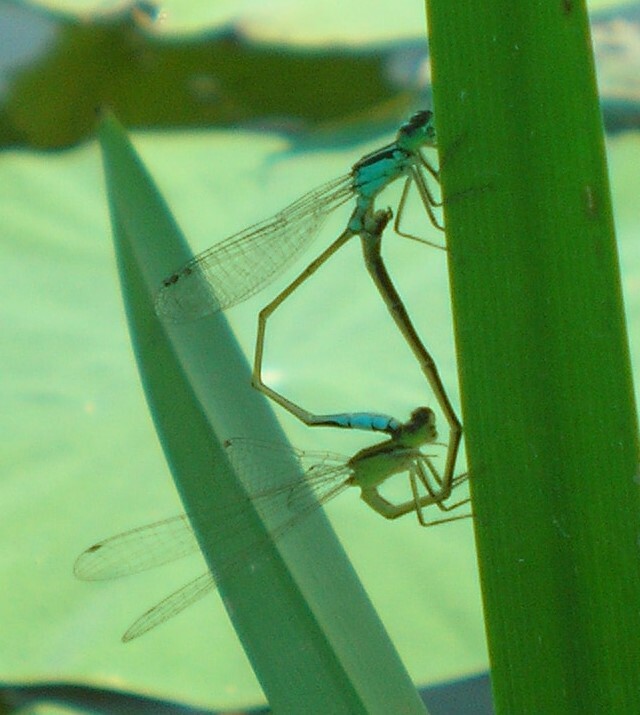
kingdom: Animalia
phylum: Arthropoda
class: Insecta
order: Odonata
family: Coenagrionidae
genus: Ischnura
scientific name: Ischnura elegans
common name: Blue-tailed damselfly
